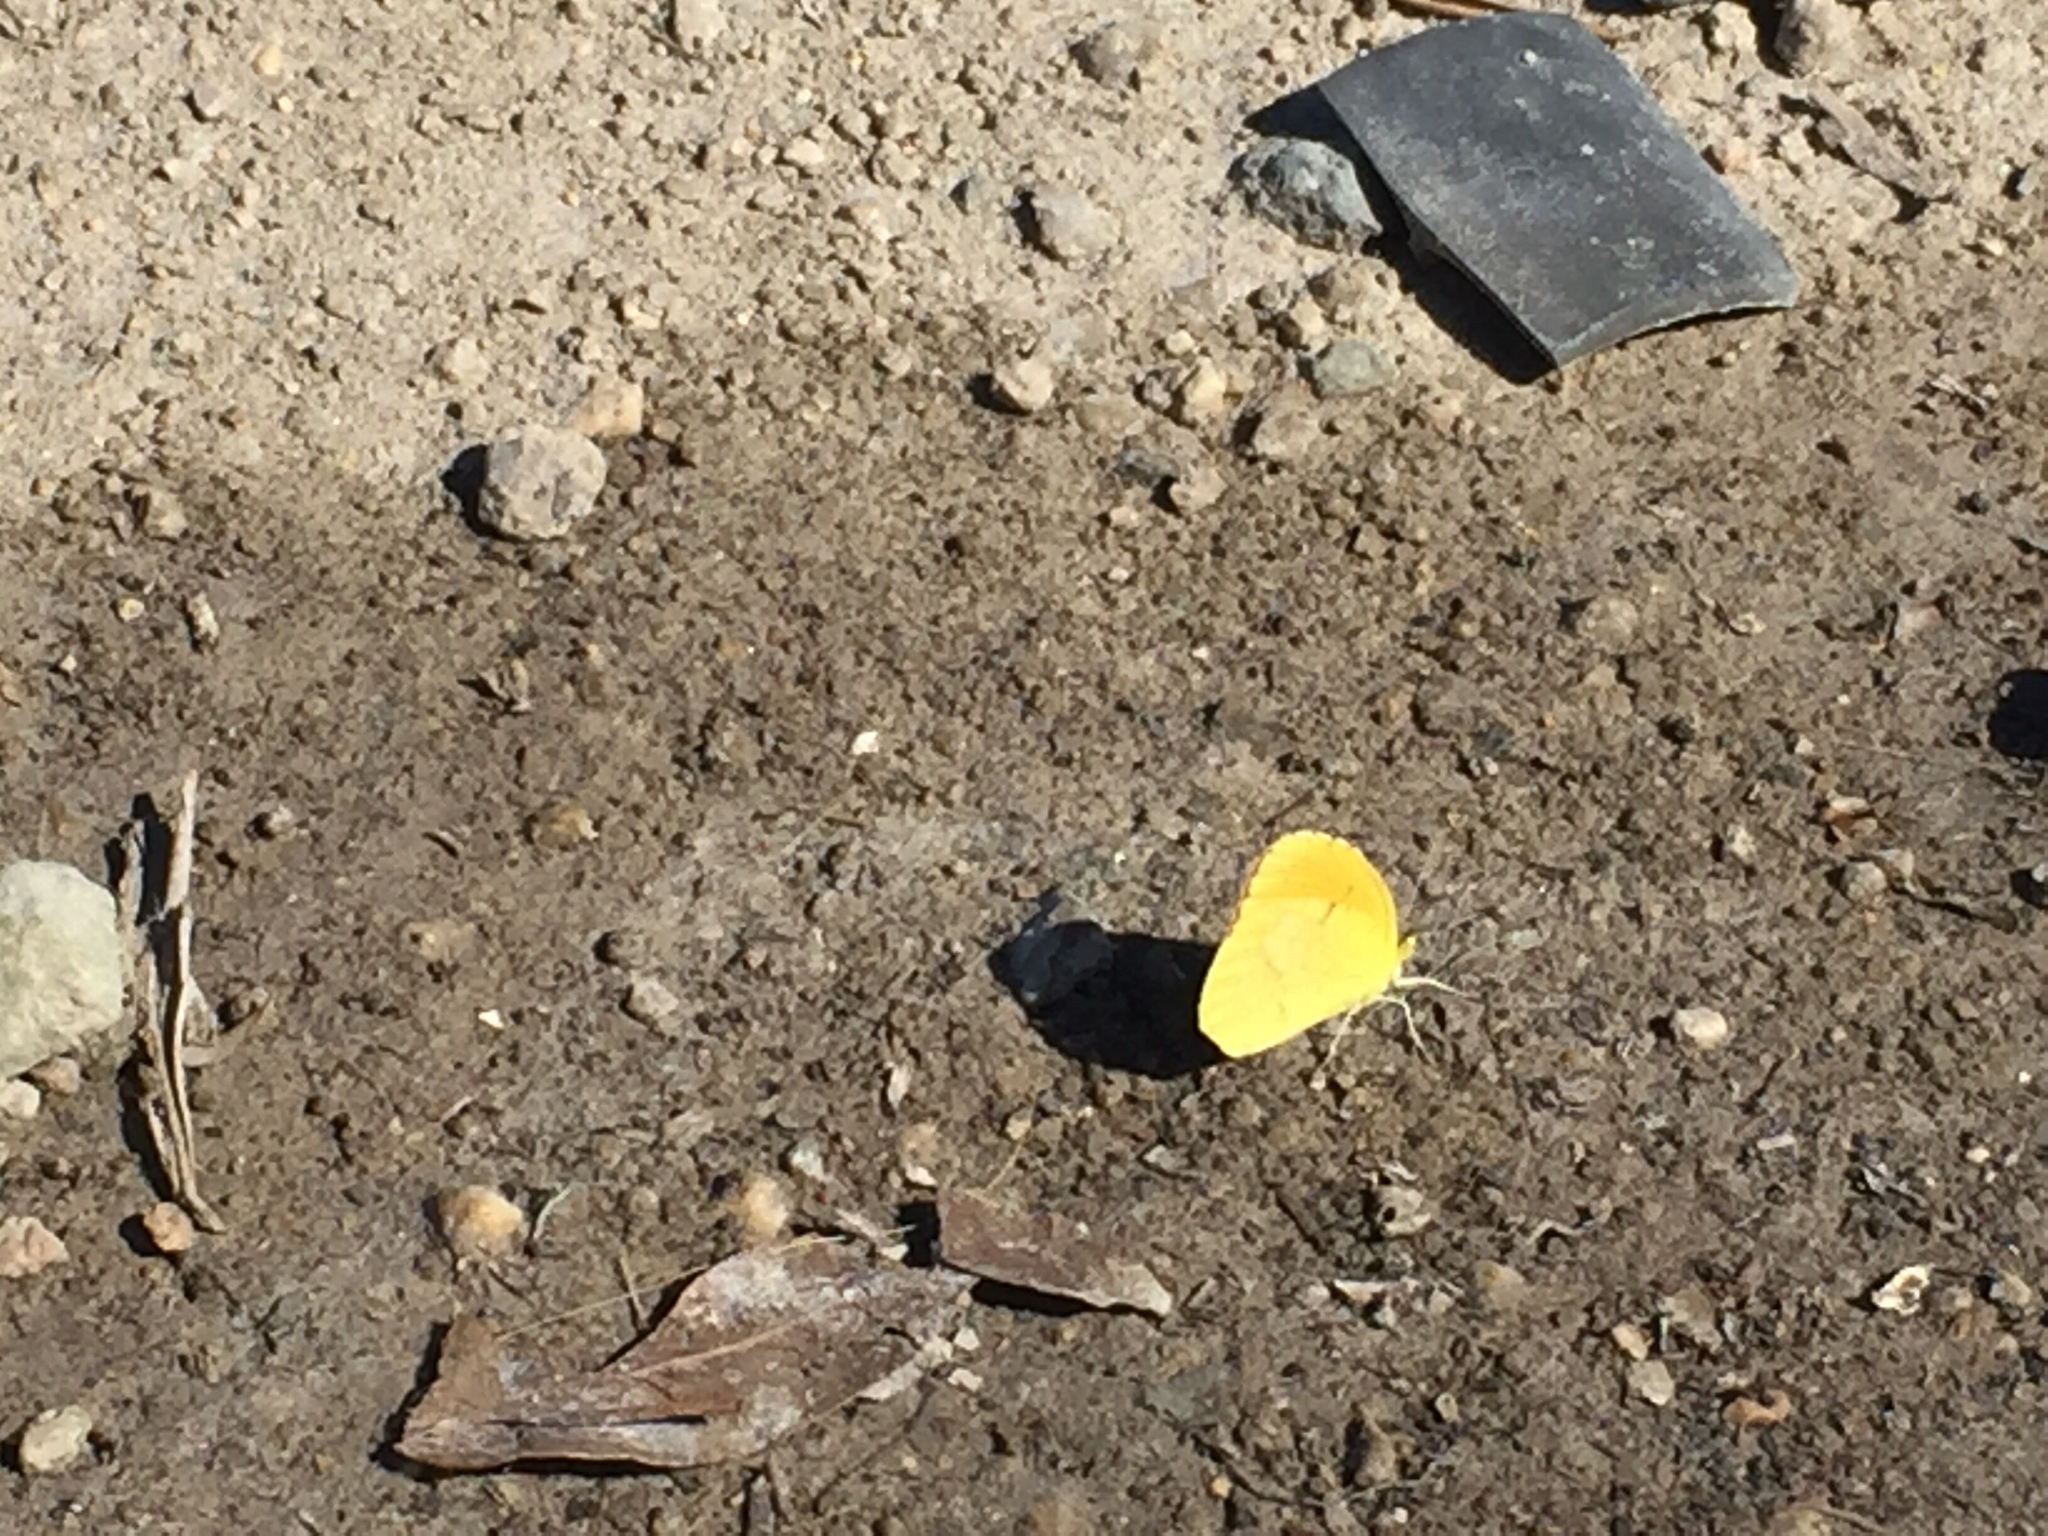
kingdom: Animalia
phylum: Arthropoda
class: Insecta
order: Lepidoptera
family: Pieridae
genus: Abaeis
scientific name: Abaeis nicippe
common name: Sleepy orange
